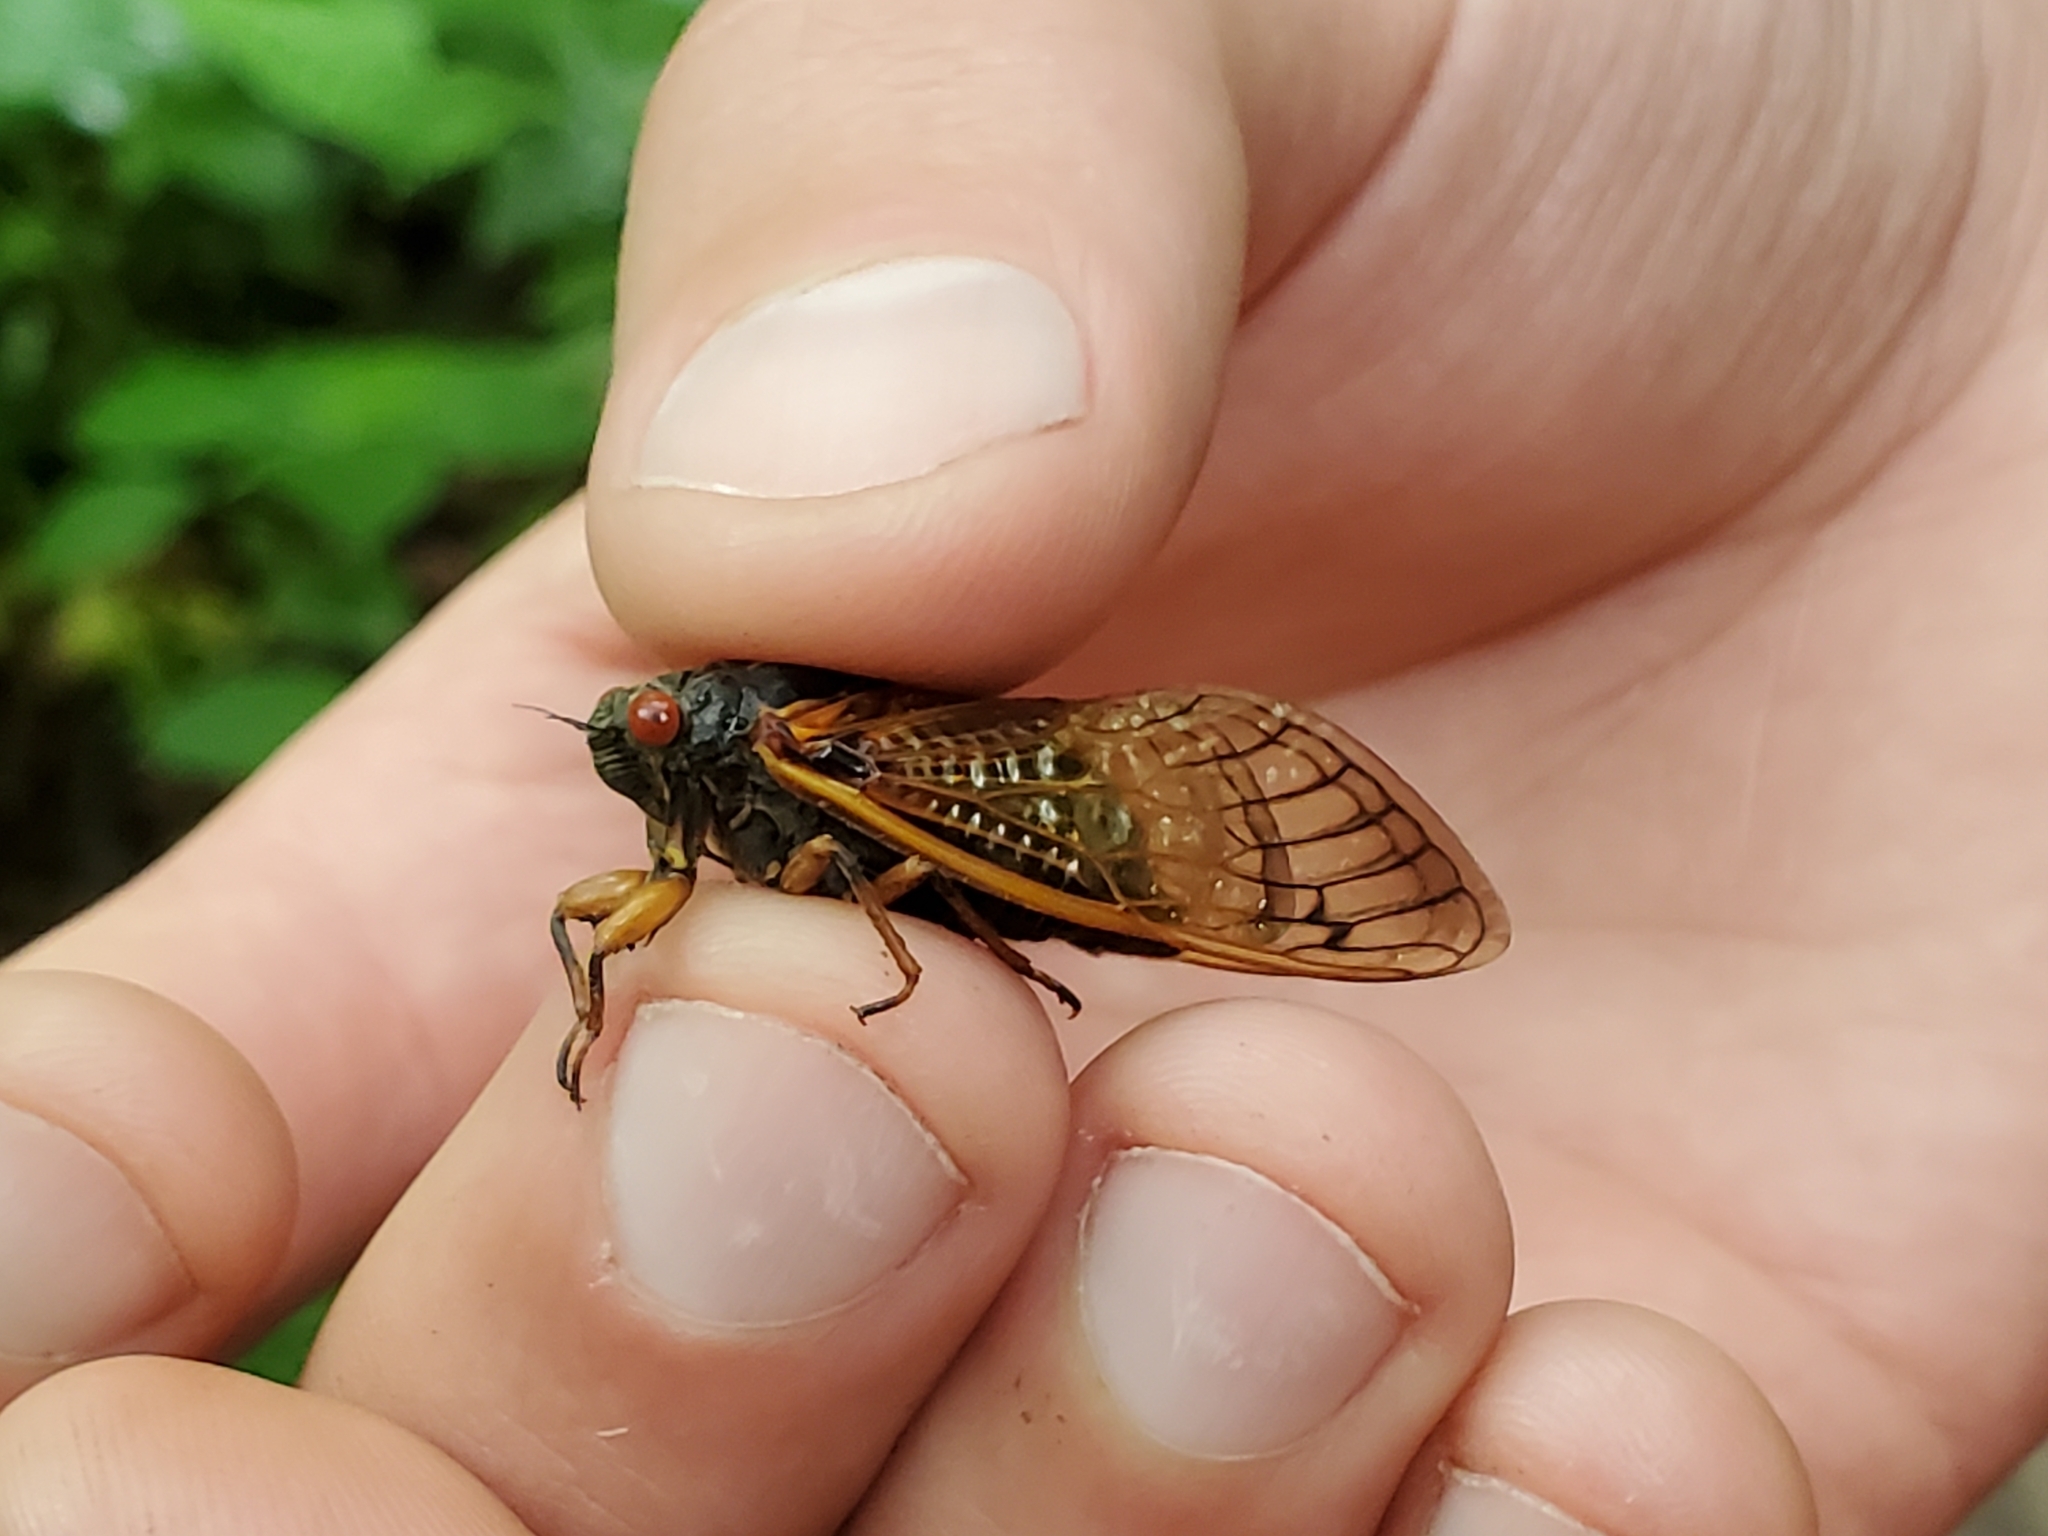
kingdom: Animalia
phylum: Arthropoda
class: Insecta
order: Hemiptera
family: Cicadidae
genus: Magicicada
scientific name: Magicicada cassini
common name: Cassin's 17-year cicada
